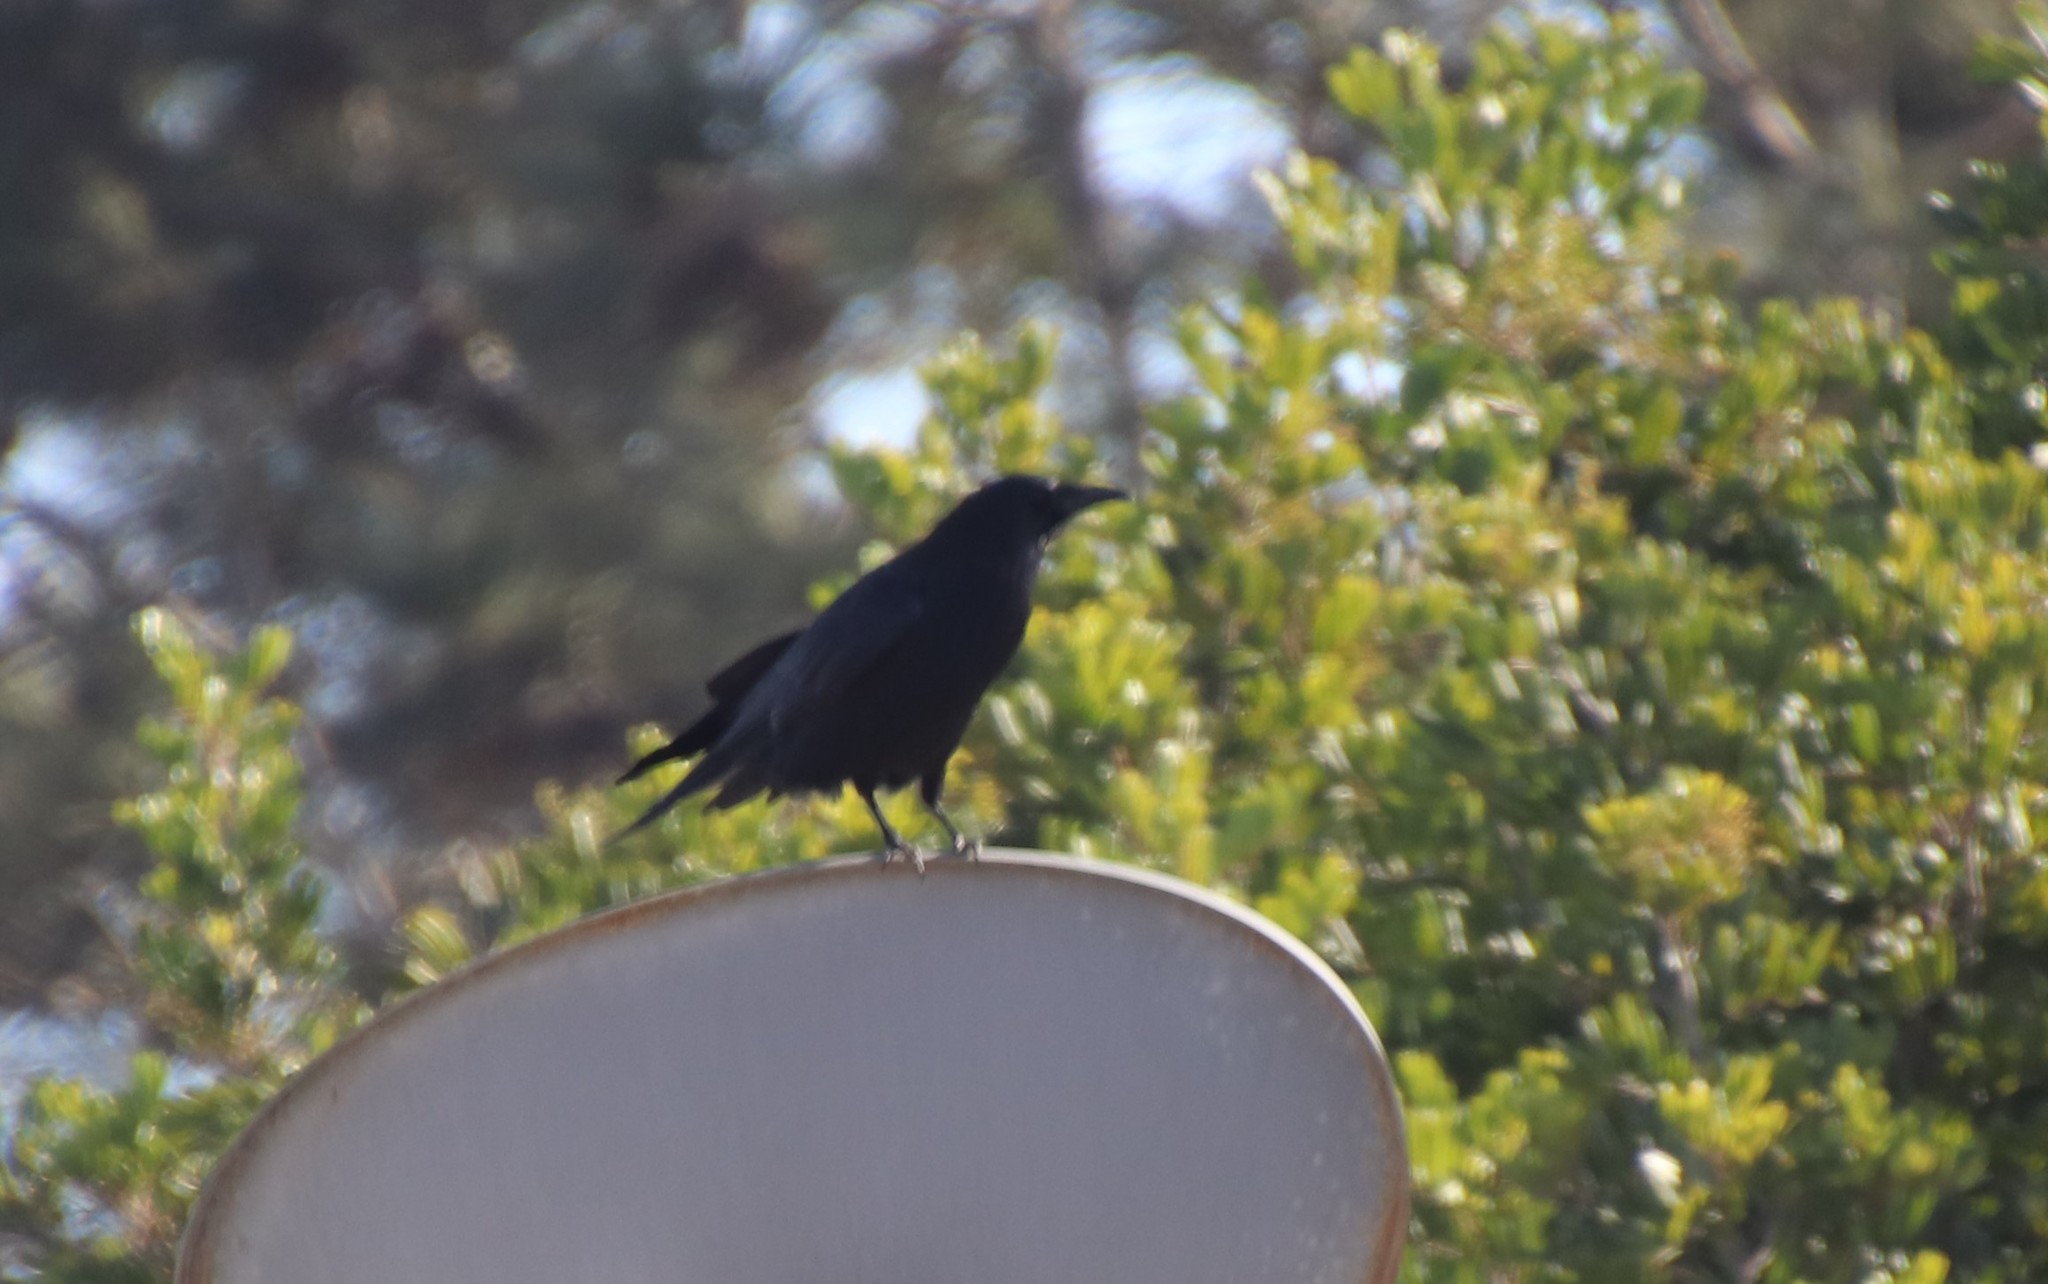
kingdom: Animalia
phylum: Chordata
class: Aves
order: Passeriformes
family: Corvidae
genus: Corvus
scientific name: Corvus brachyrhynchos
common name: American crow
